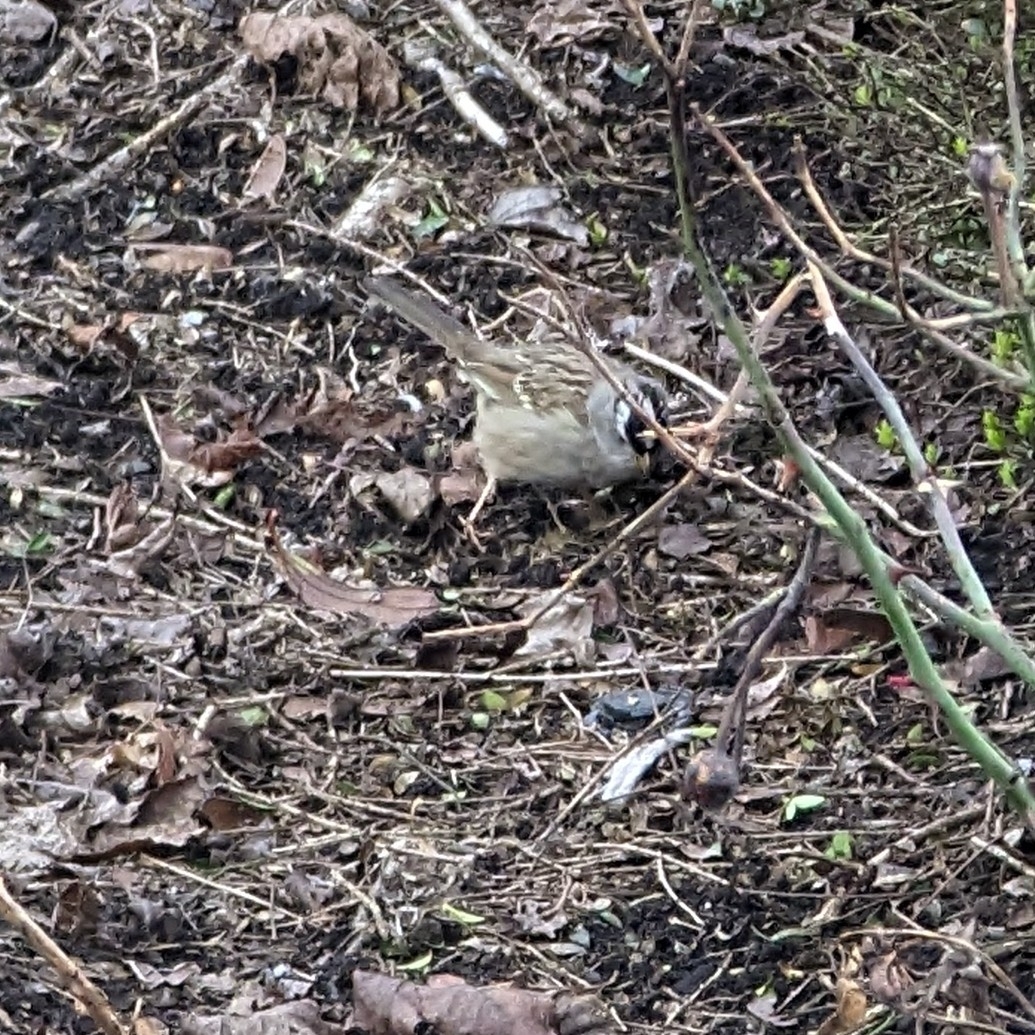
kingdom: Animalia
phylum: Chordata
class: Aves
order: Passeriformes
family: Passerellidae
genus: Zonotrichia
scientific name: Zonotrichia leucophrys
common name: White-crowned sparrow
